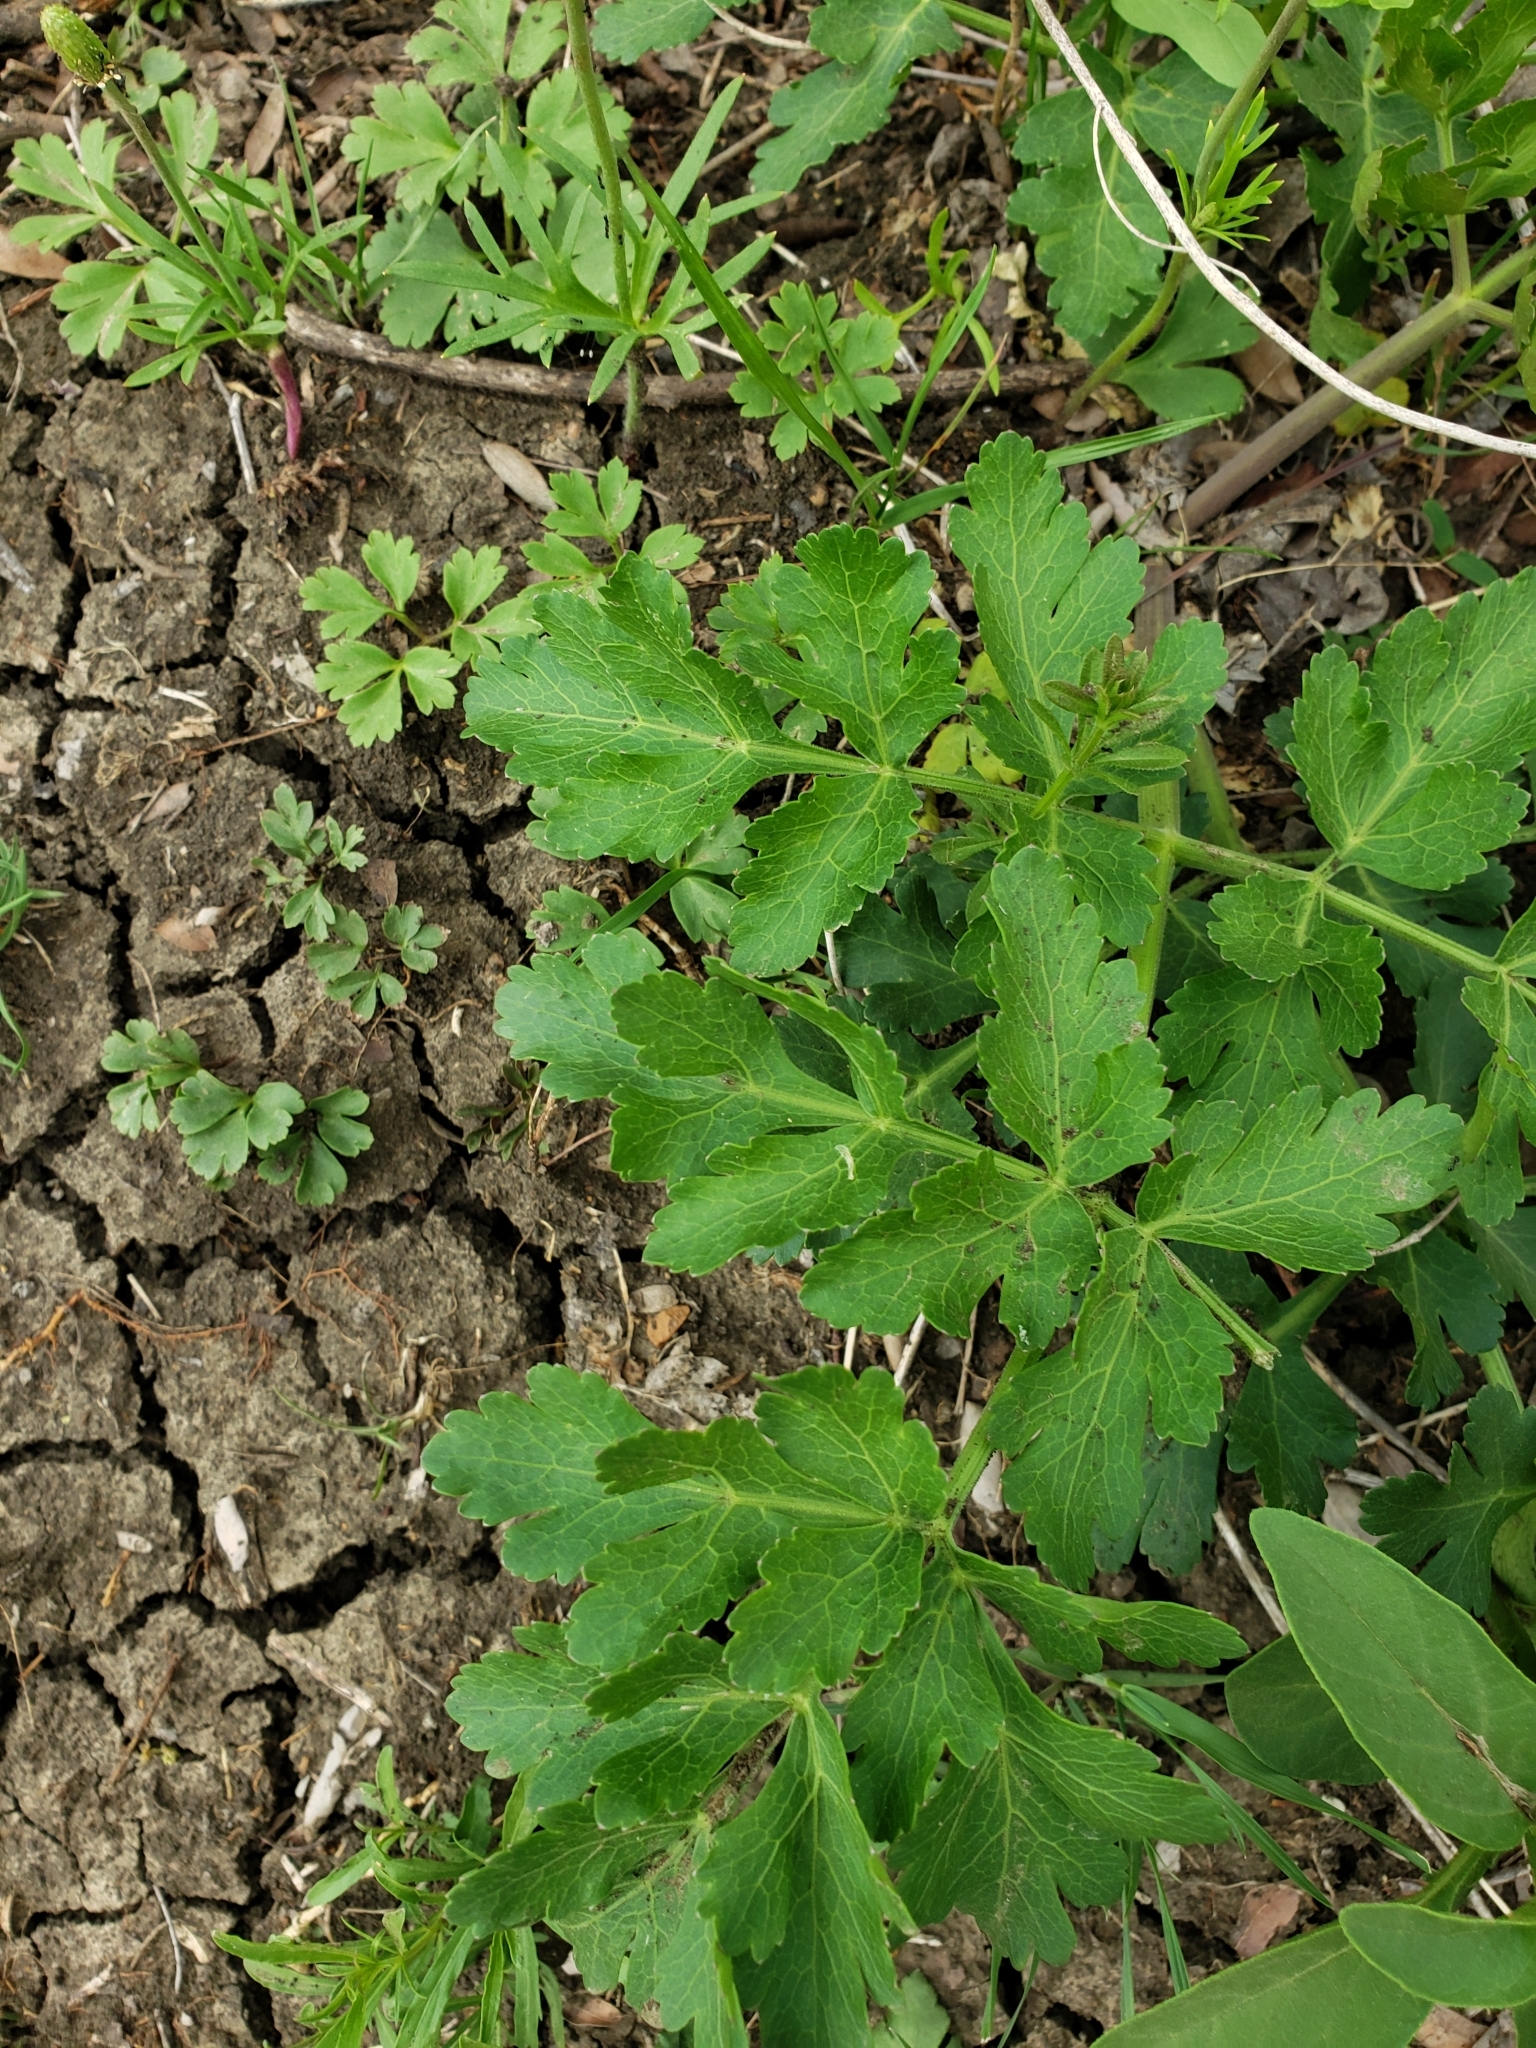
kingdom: Plantae
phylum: Tracheophyta
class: Magnoliopsida
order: Apiales
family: Apiaceae
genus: Polytaenia
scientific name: Polytaenia texana
